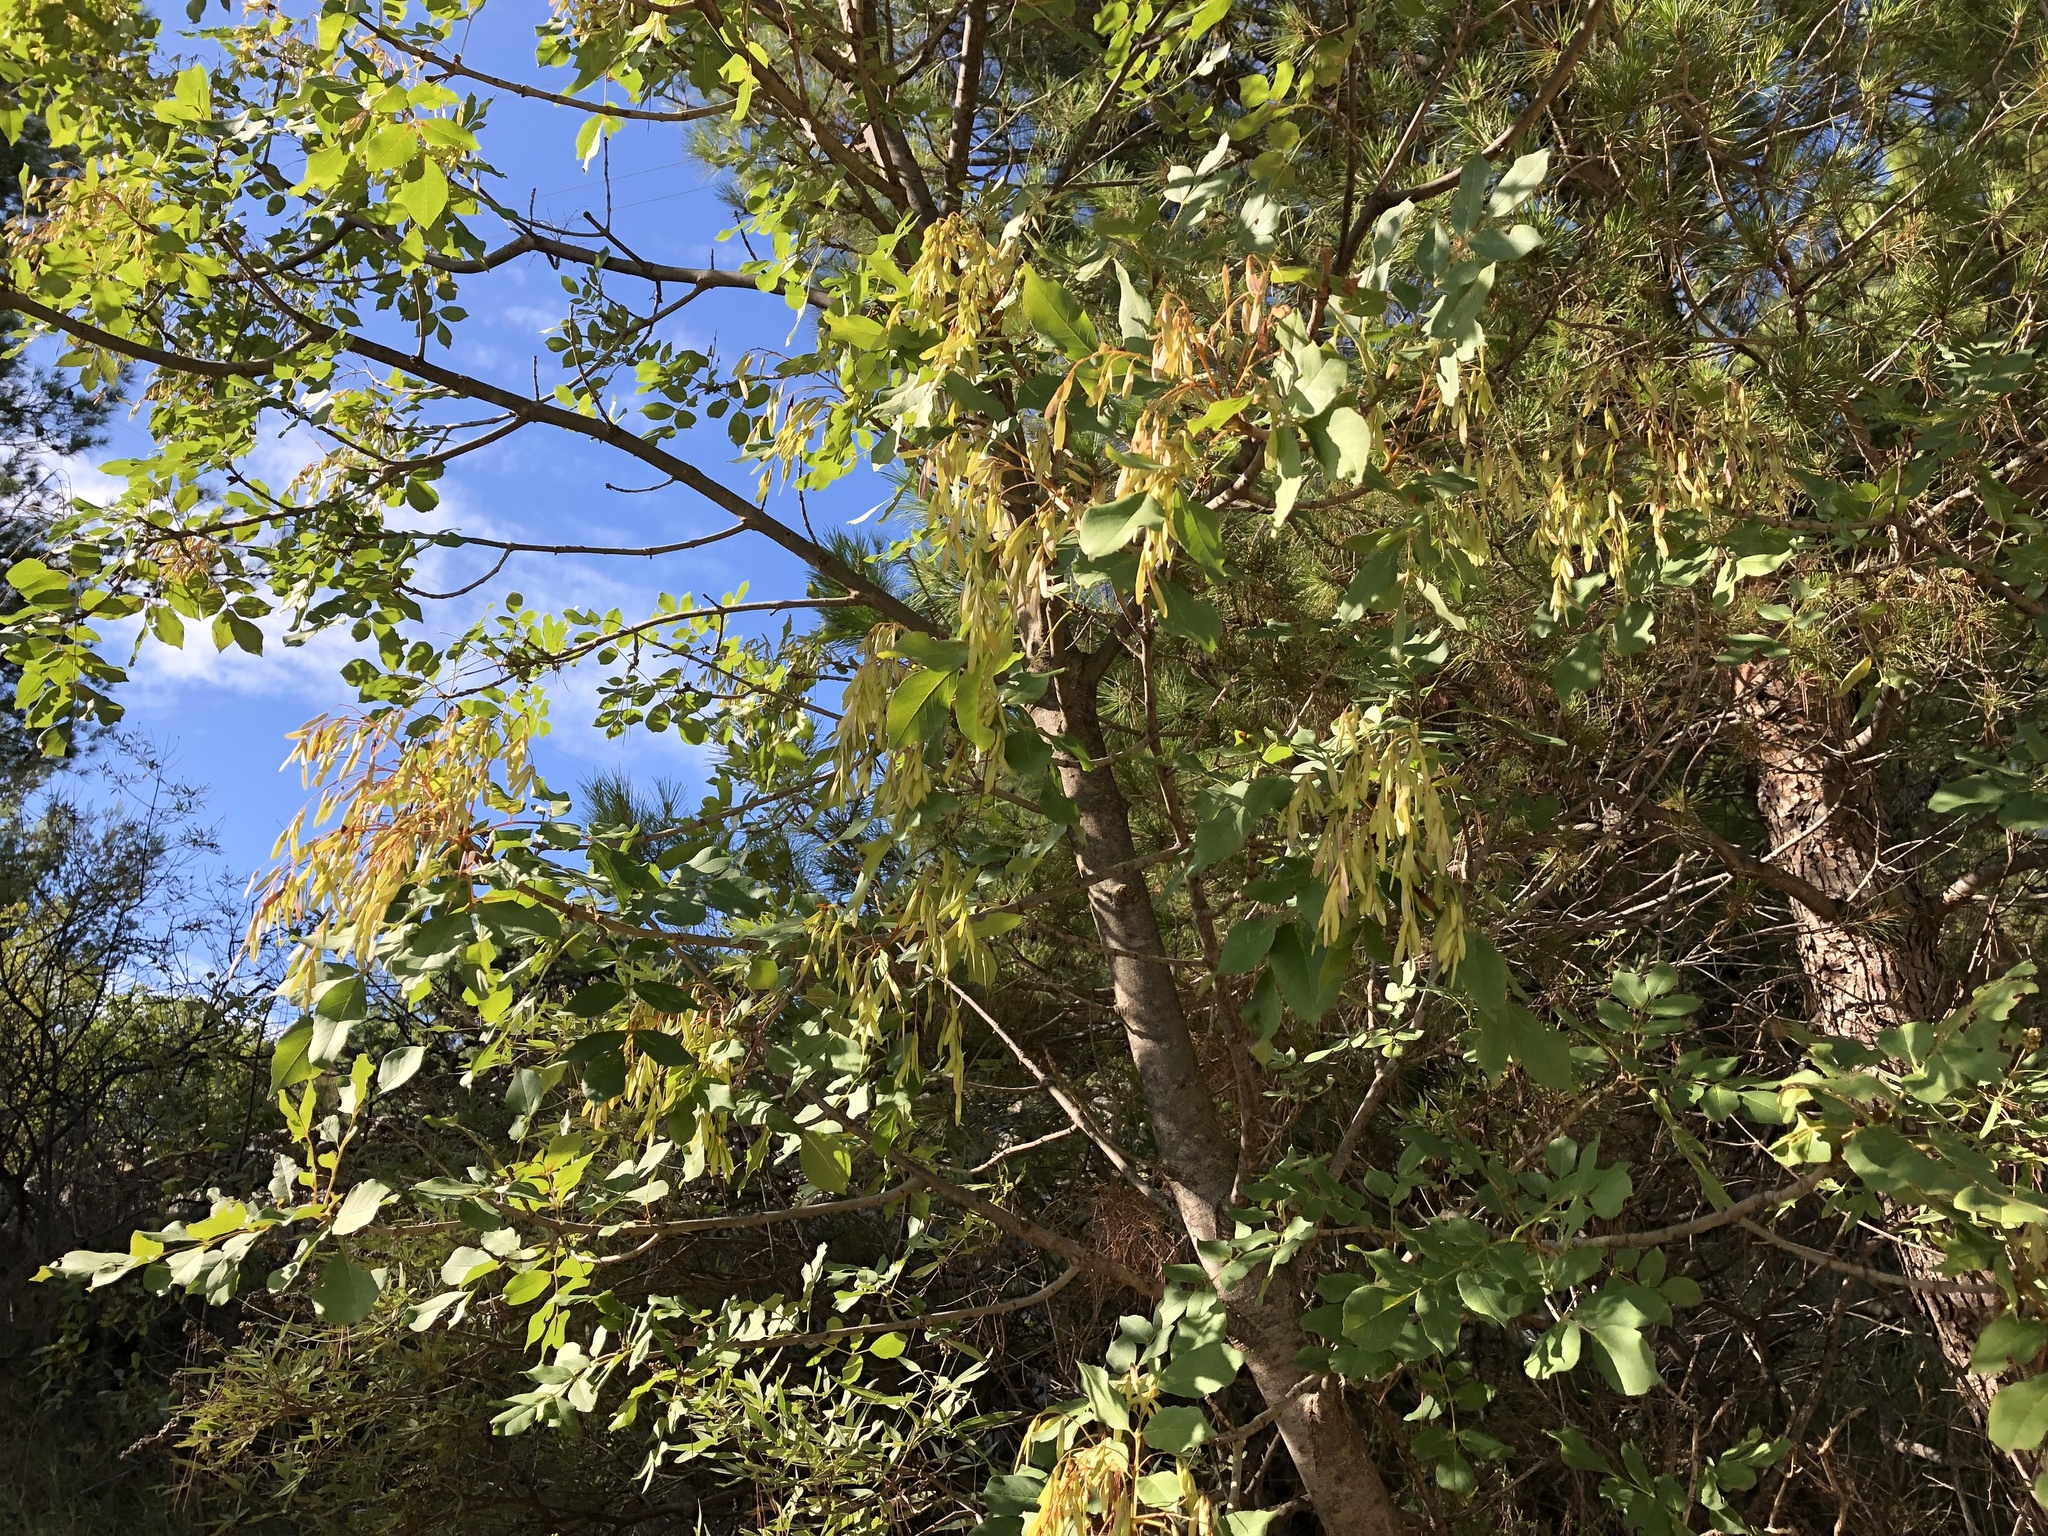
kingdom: Plantae
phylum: Tracheophyta
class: Magnoliopsida
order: Lamiales
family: Oleaceae
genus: Fraxinus
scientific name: Fraxinus ornus
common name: Manna ash
